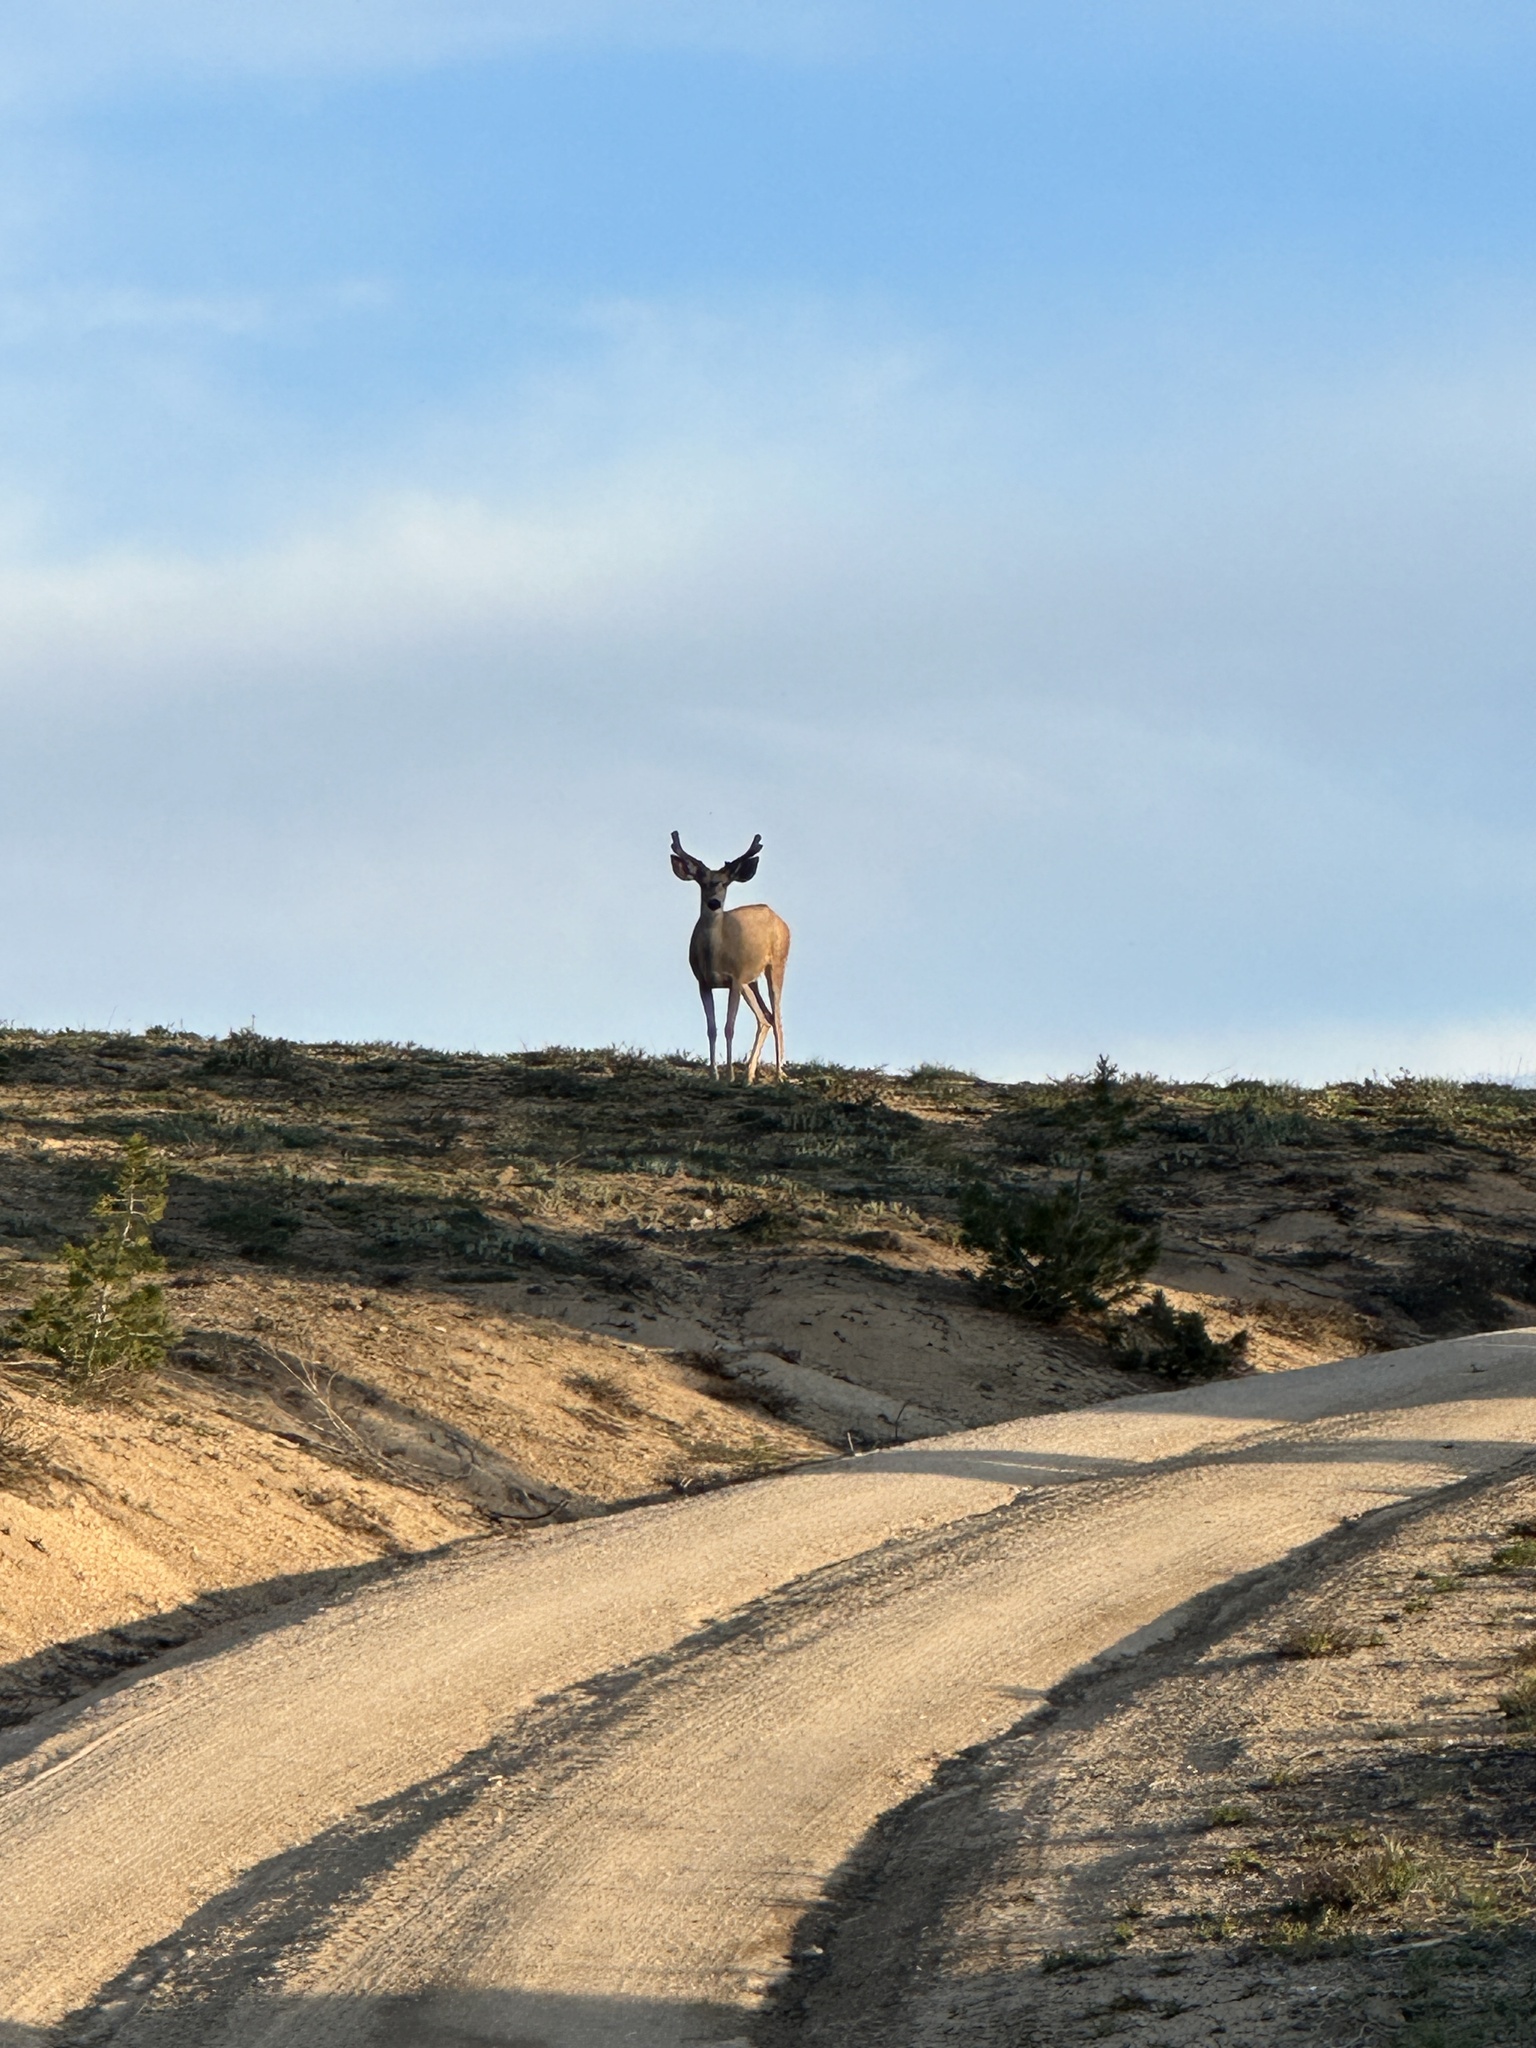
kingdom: Animalia
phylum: Chordata
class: Mammalia
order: Artiodactyla
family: Cervidae
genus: Odocoileus
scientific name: Odocoileus hemionus
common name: Mule deer
